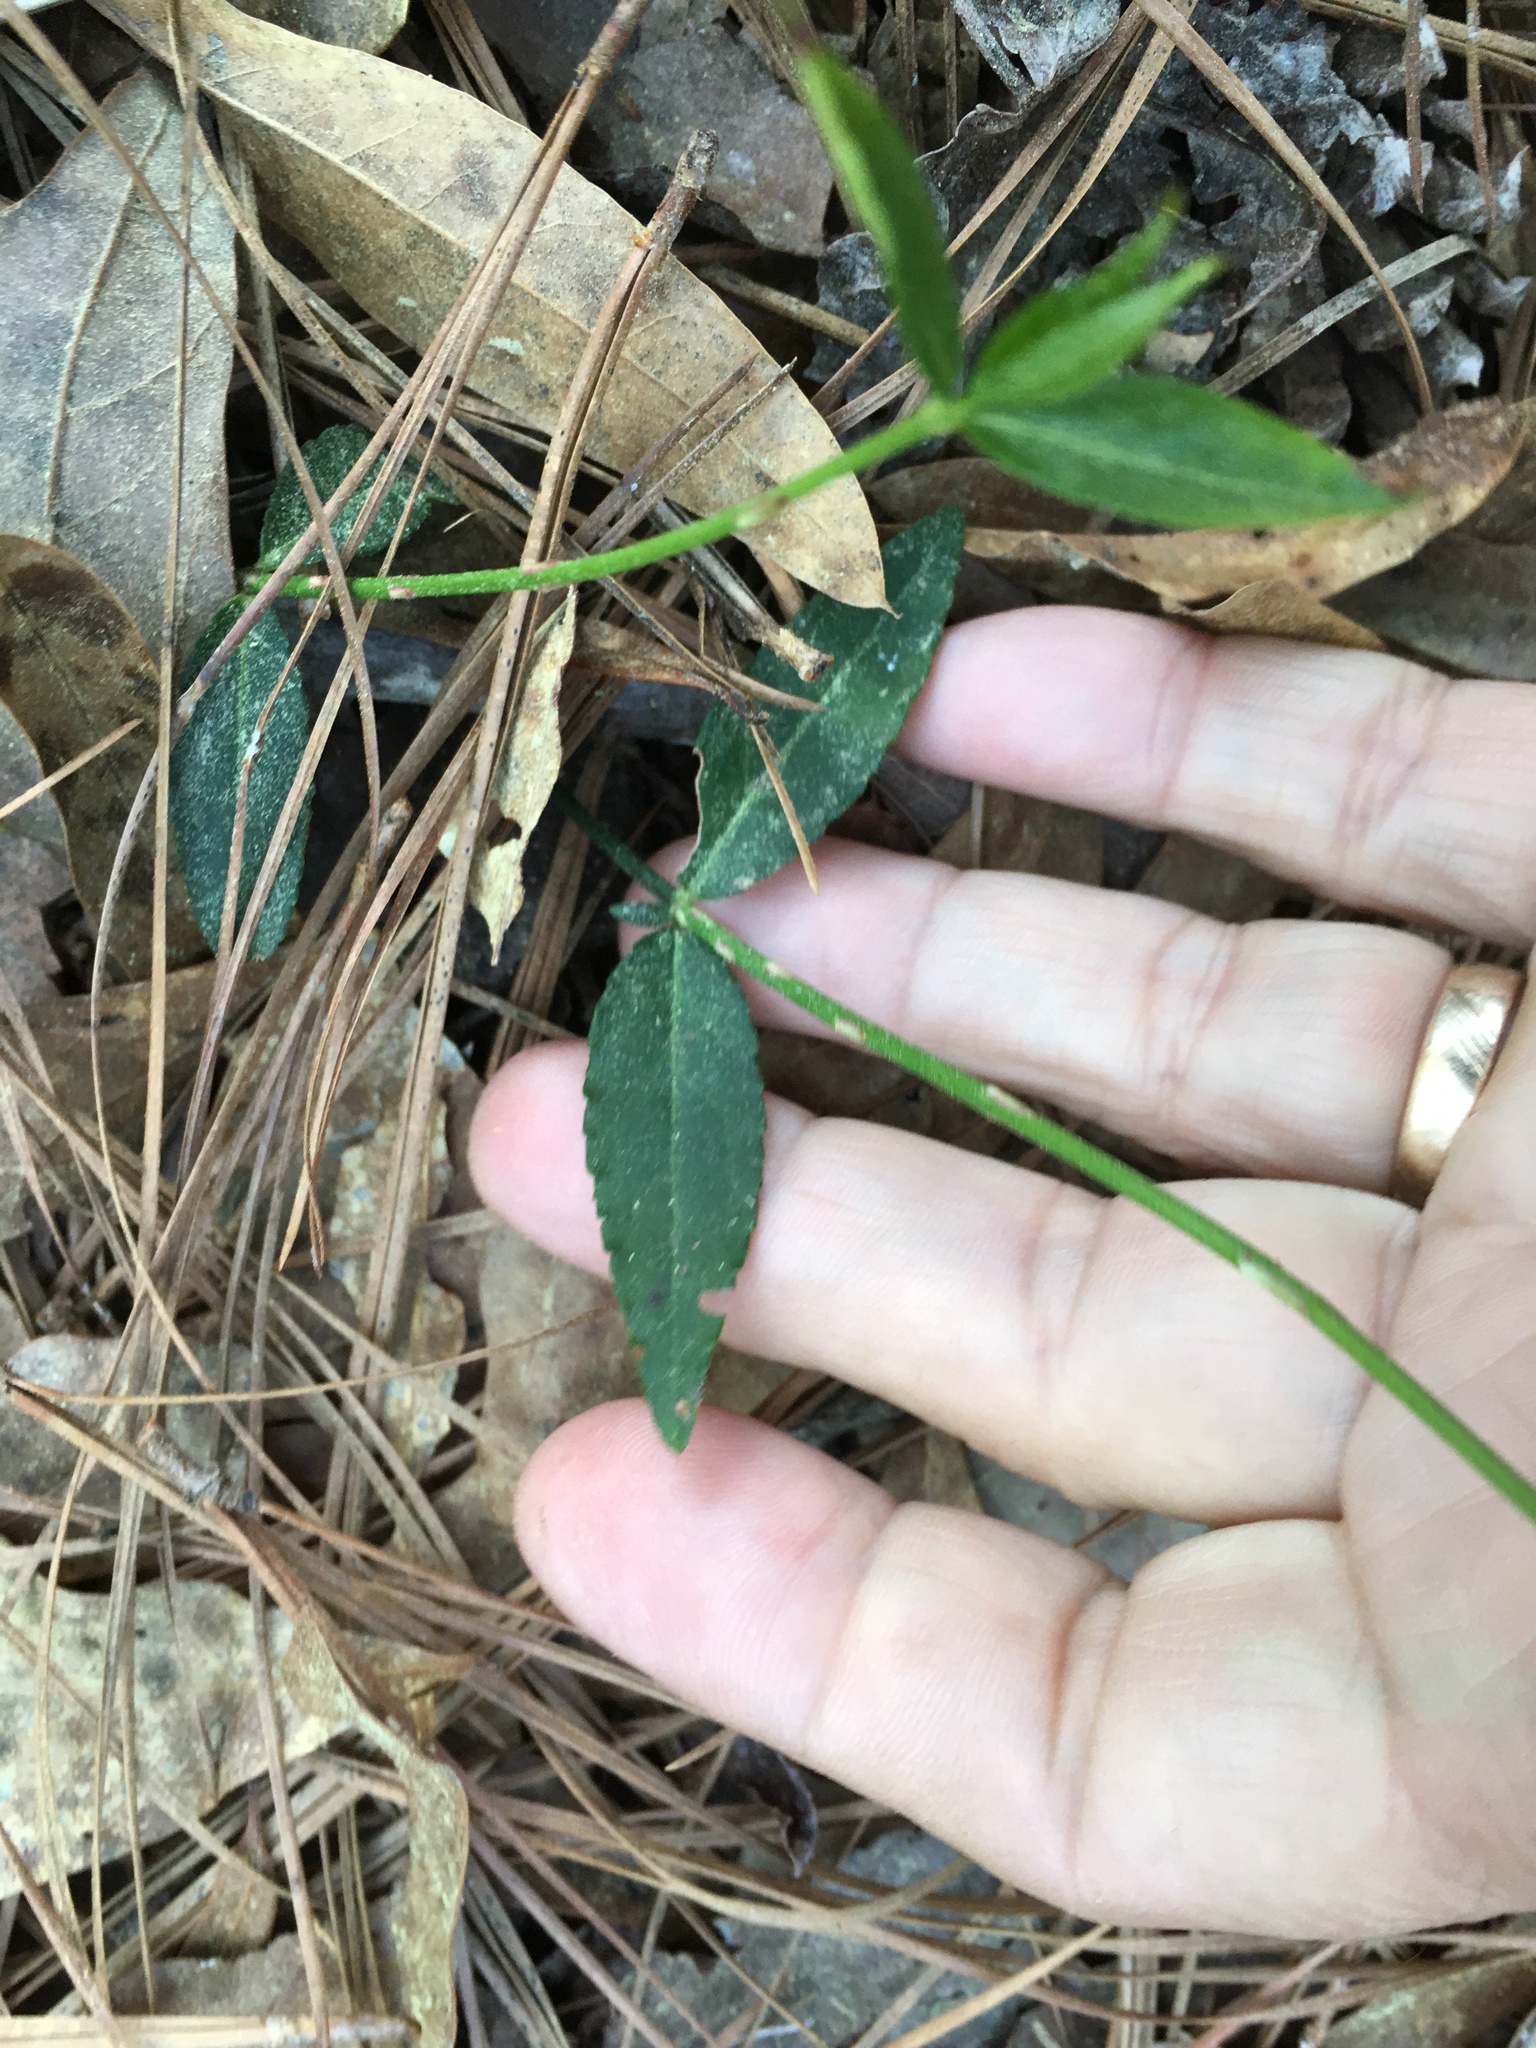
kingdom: Plantae
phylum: Tracheophyta
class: Magnoliopsida
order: Celastrales
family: Celastraceae
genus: Euonymus
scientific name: Euonymus americanus
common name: Bursting-heart
